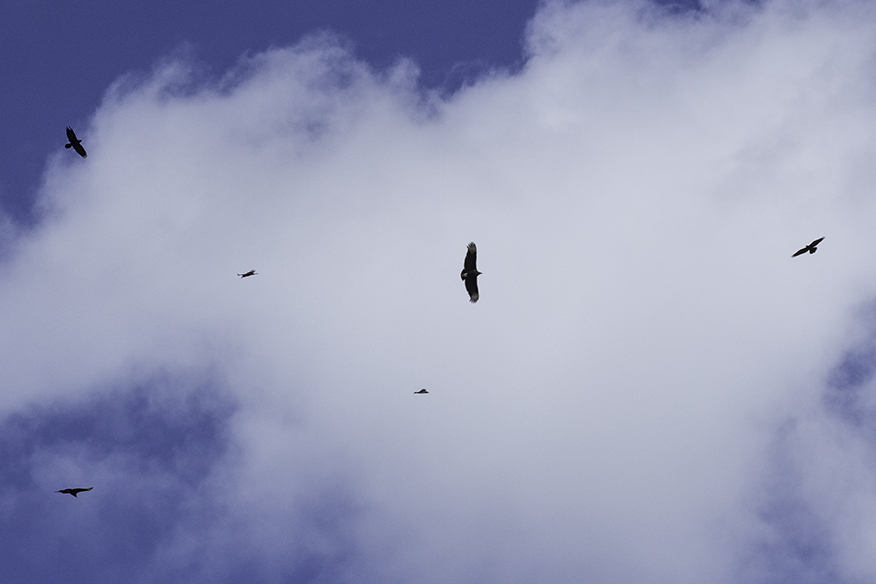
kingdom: Animalia
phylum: Chordata
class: Aves
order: Accipitriformes
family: Cathartidae
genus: Coragyps
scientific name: Coragyps atratus
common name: Black vulture
